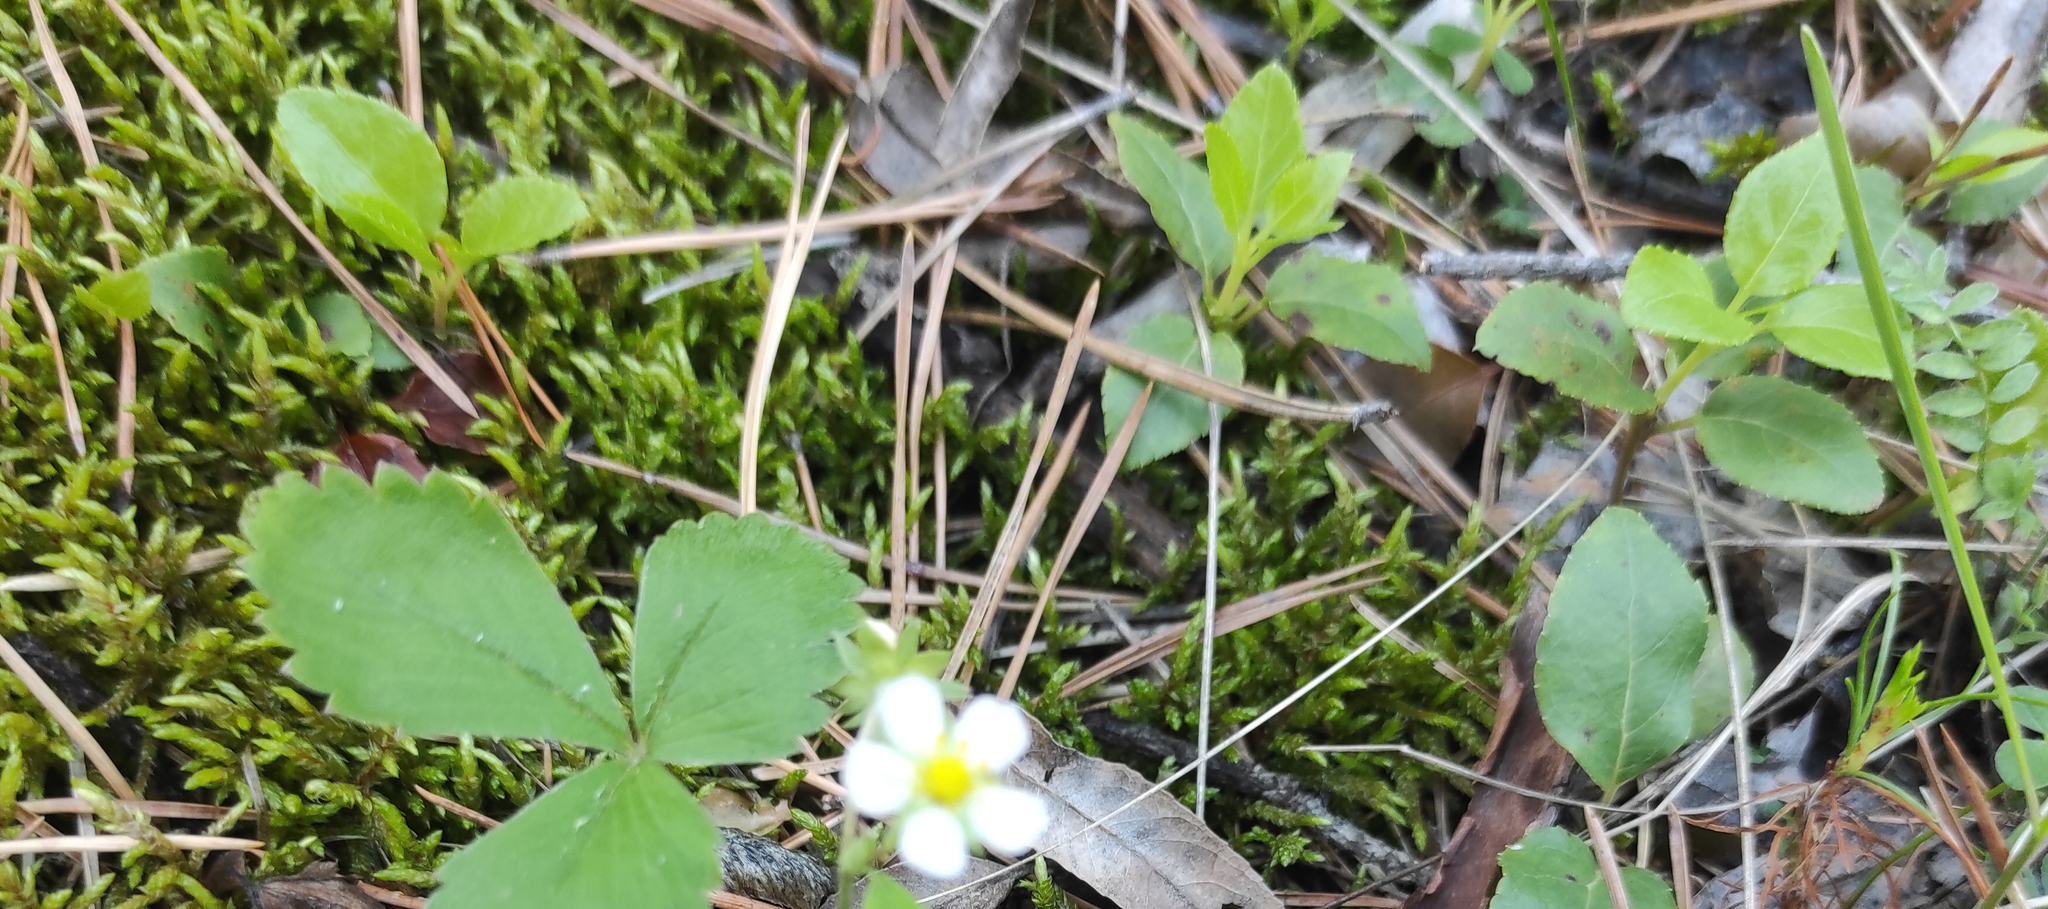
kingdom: Plantae
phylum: Tracheophyta
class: Magnoliopsida
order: Ericales
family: Ericaceae
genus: Orthilia
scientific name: Orthilia secunda
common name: One-sided orthilia
